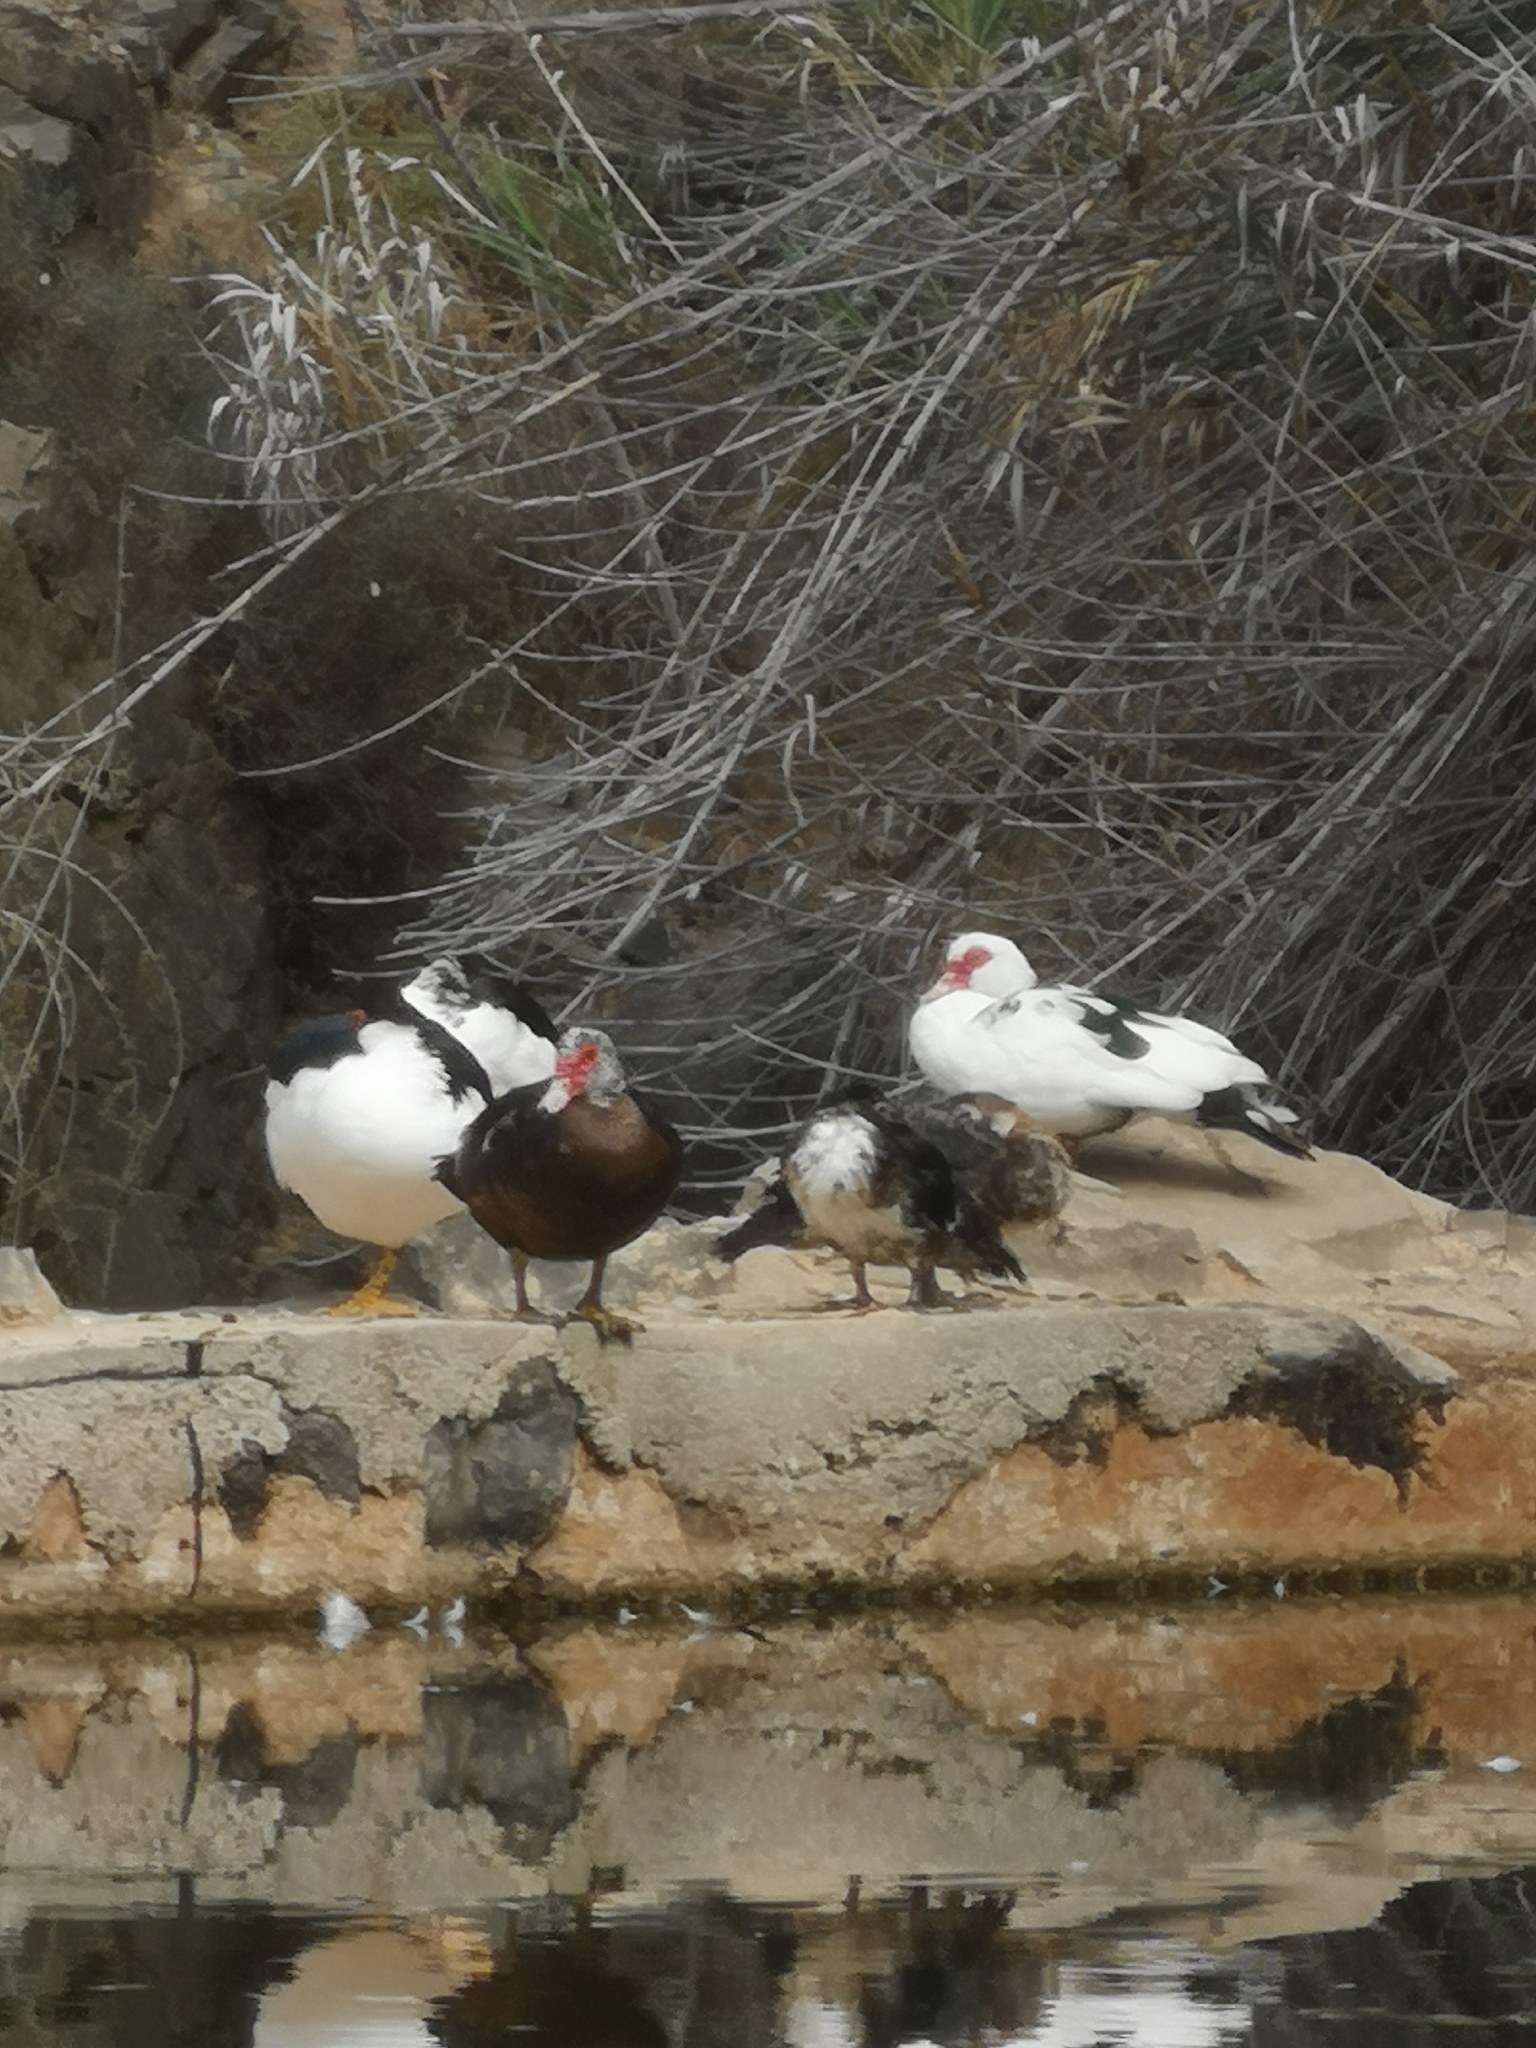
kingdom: Animalia
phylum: Chordata
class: Aves
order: Anseriformes
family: Anatidae
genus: Cairina
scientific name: Cairina moschata
